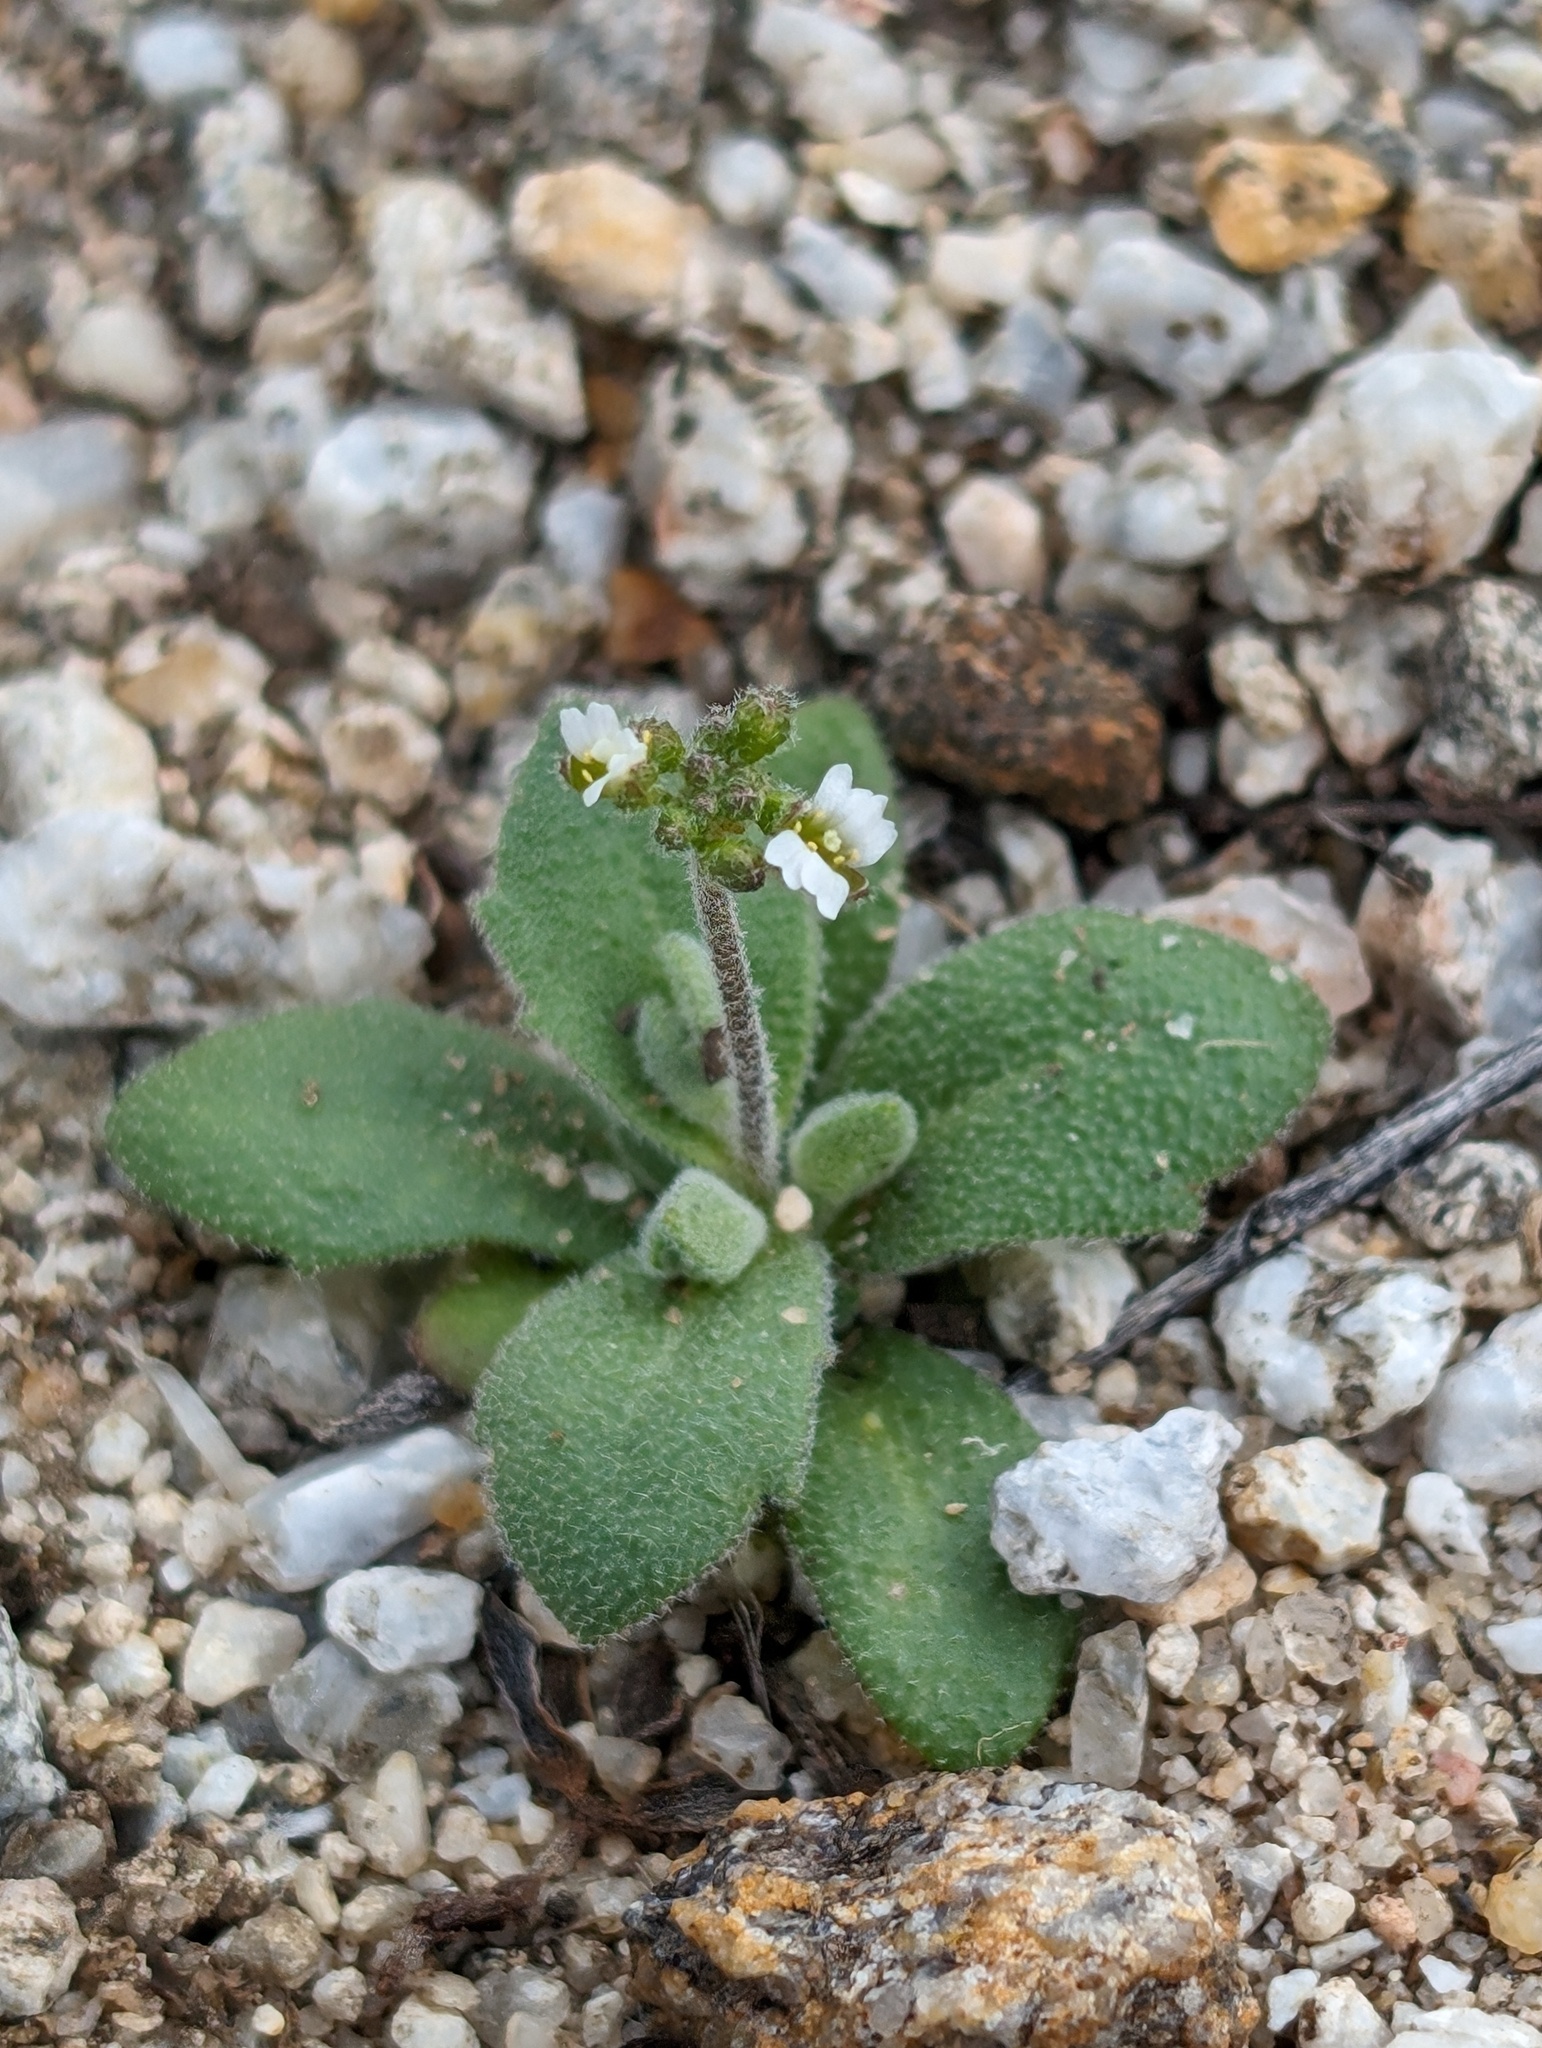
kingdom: Plantae
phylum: Tracheophyta
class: Magnoliopsida
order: Brassicales
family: Brassicaceae
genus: Tomostima
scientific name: Tomostima cuneifolia
